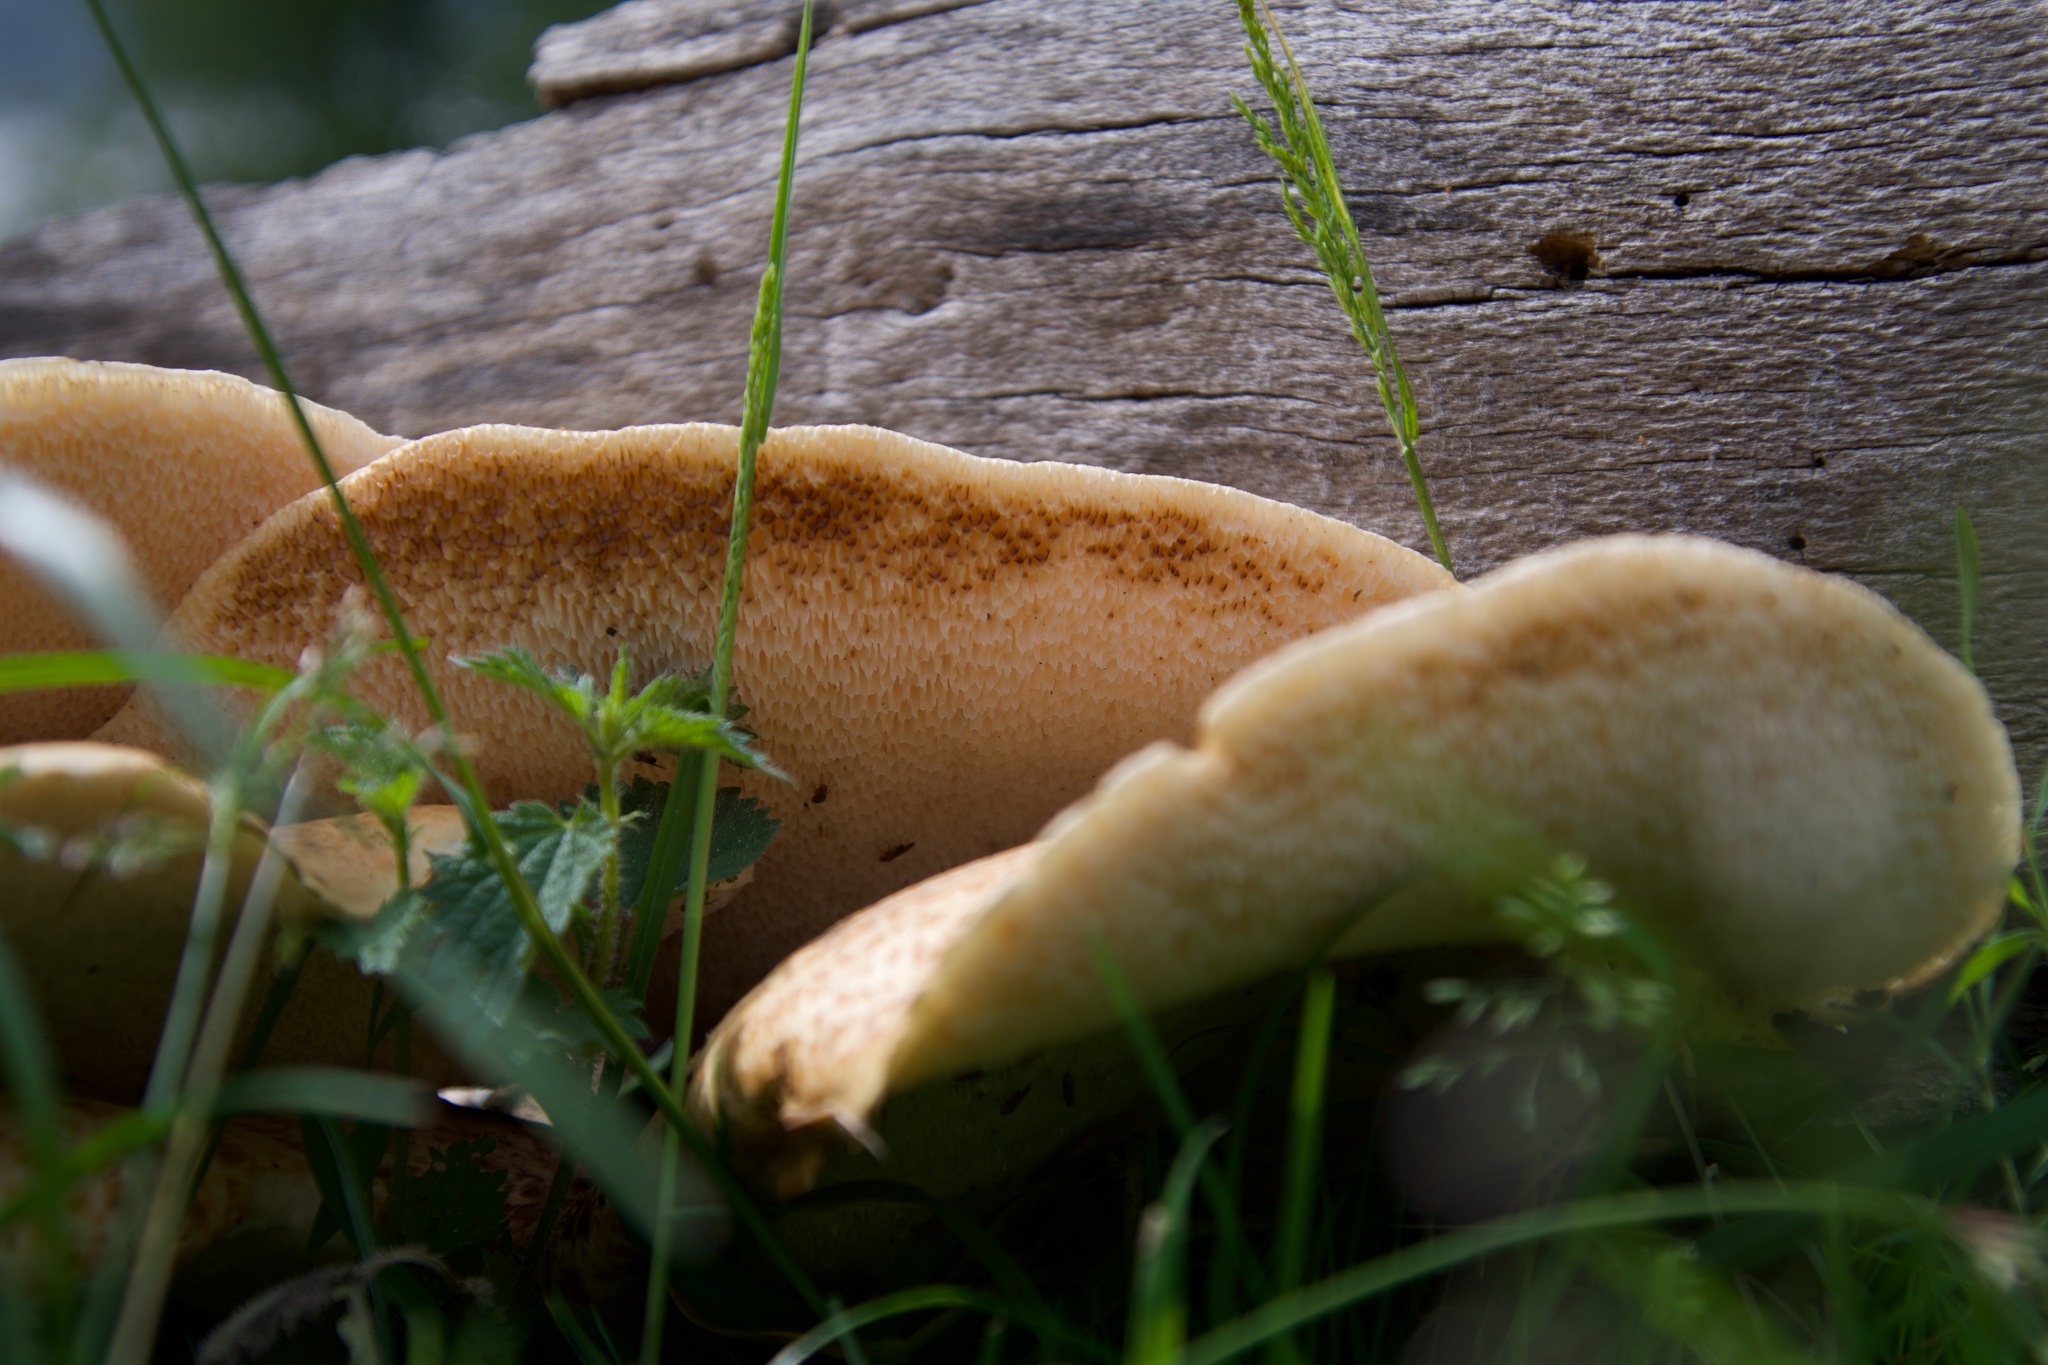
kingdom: Fungi
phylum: Basidiomycota
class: Agaricomycetes
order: Polyporales
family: Polyporaceae
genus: Cerioporus
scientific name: Cerioporus squamosus
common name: Dryad's saddle
